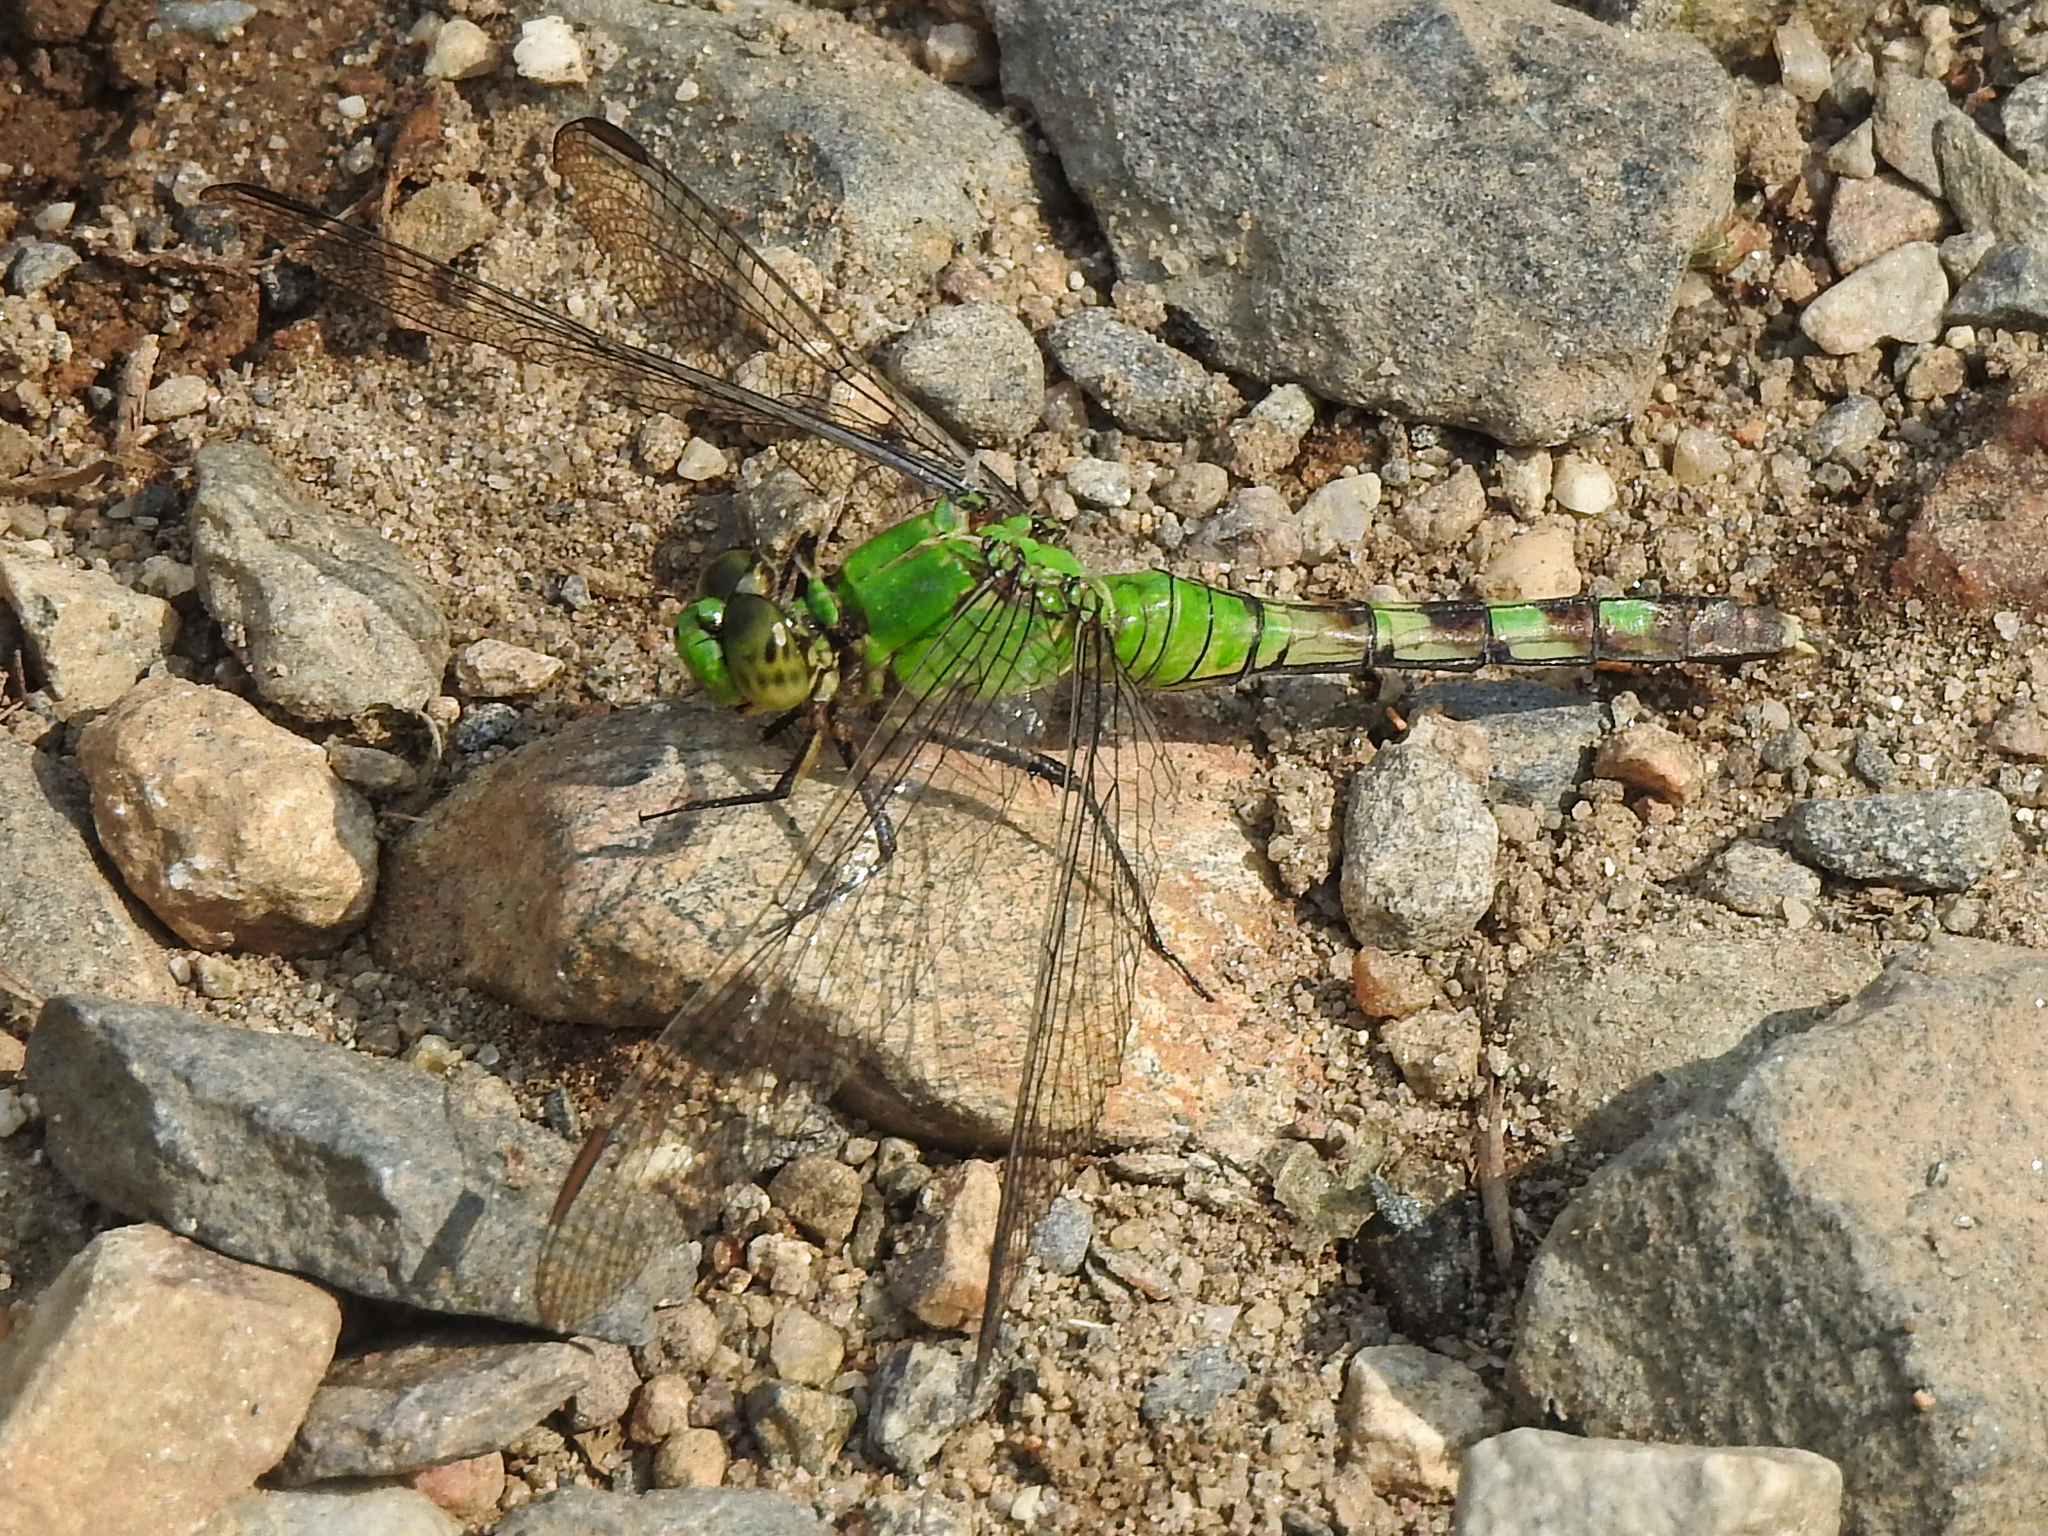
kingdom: Animalia
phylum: Arthropoda
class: Insecta
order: Odonata
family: Libellulidae
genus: Erythemis
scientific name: Erythemis simplicicollis
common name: Eastern pondhawk
